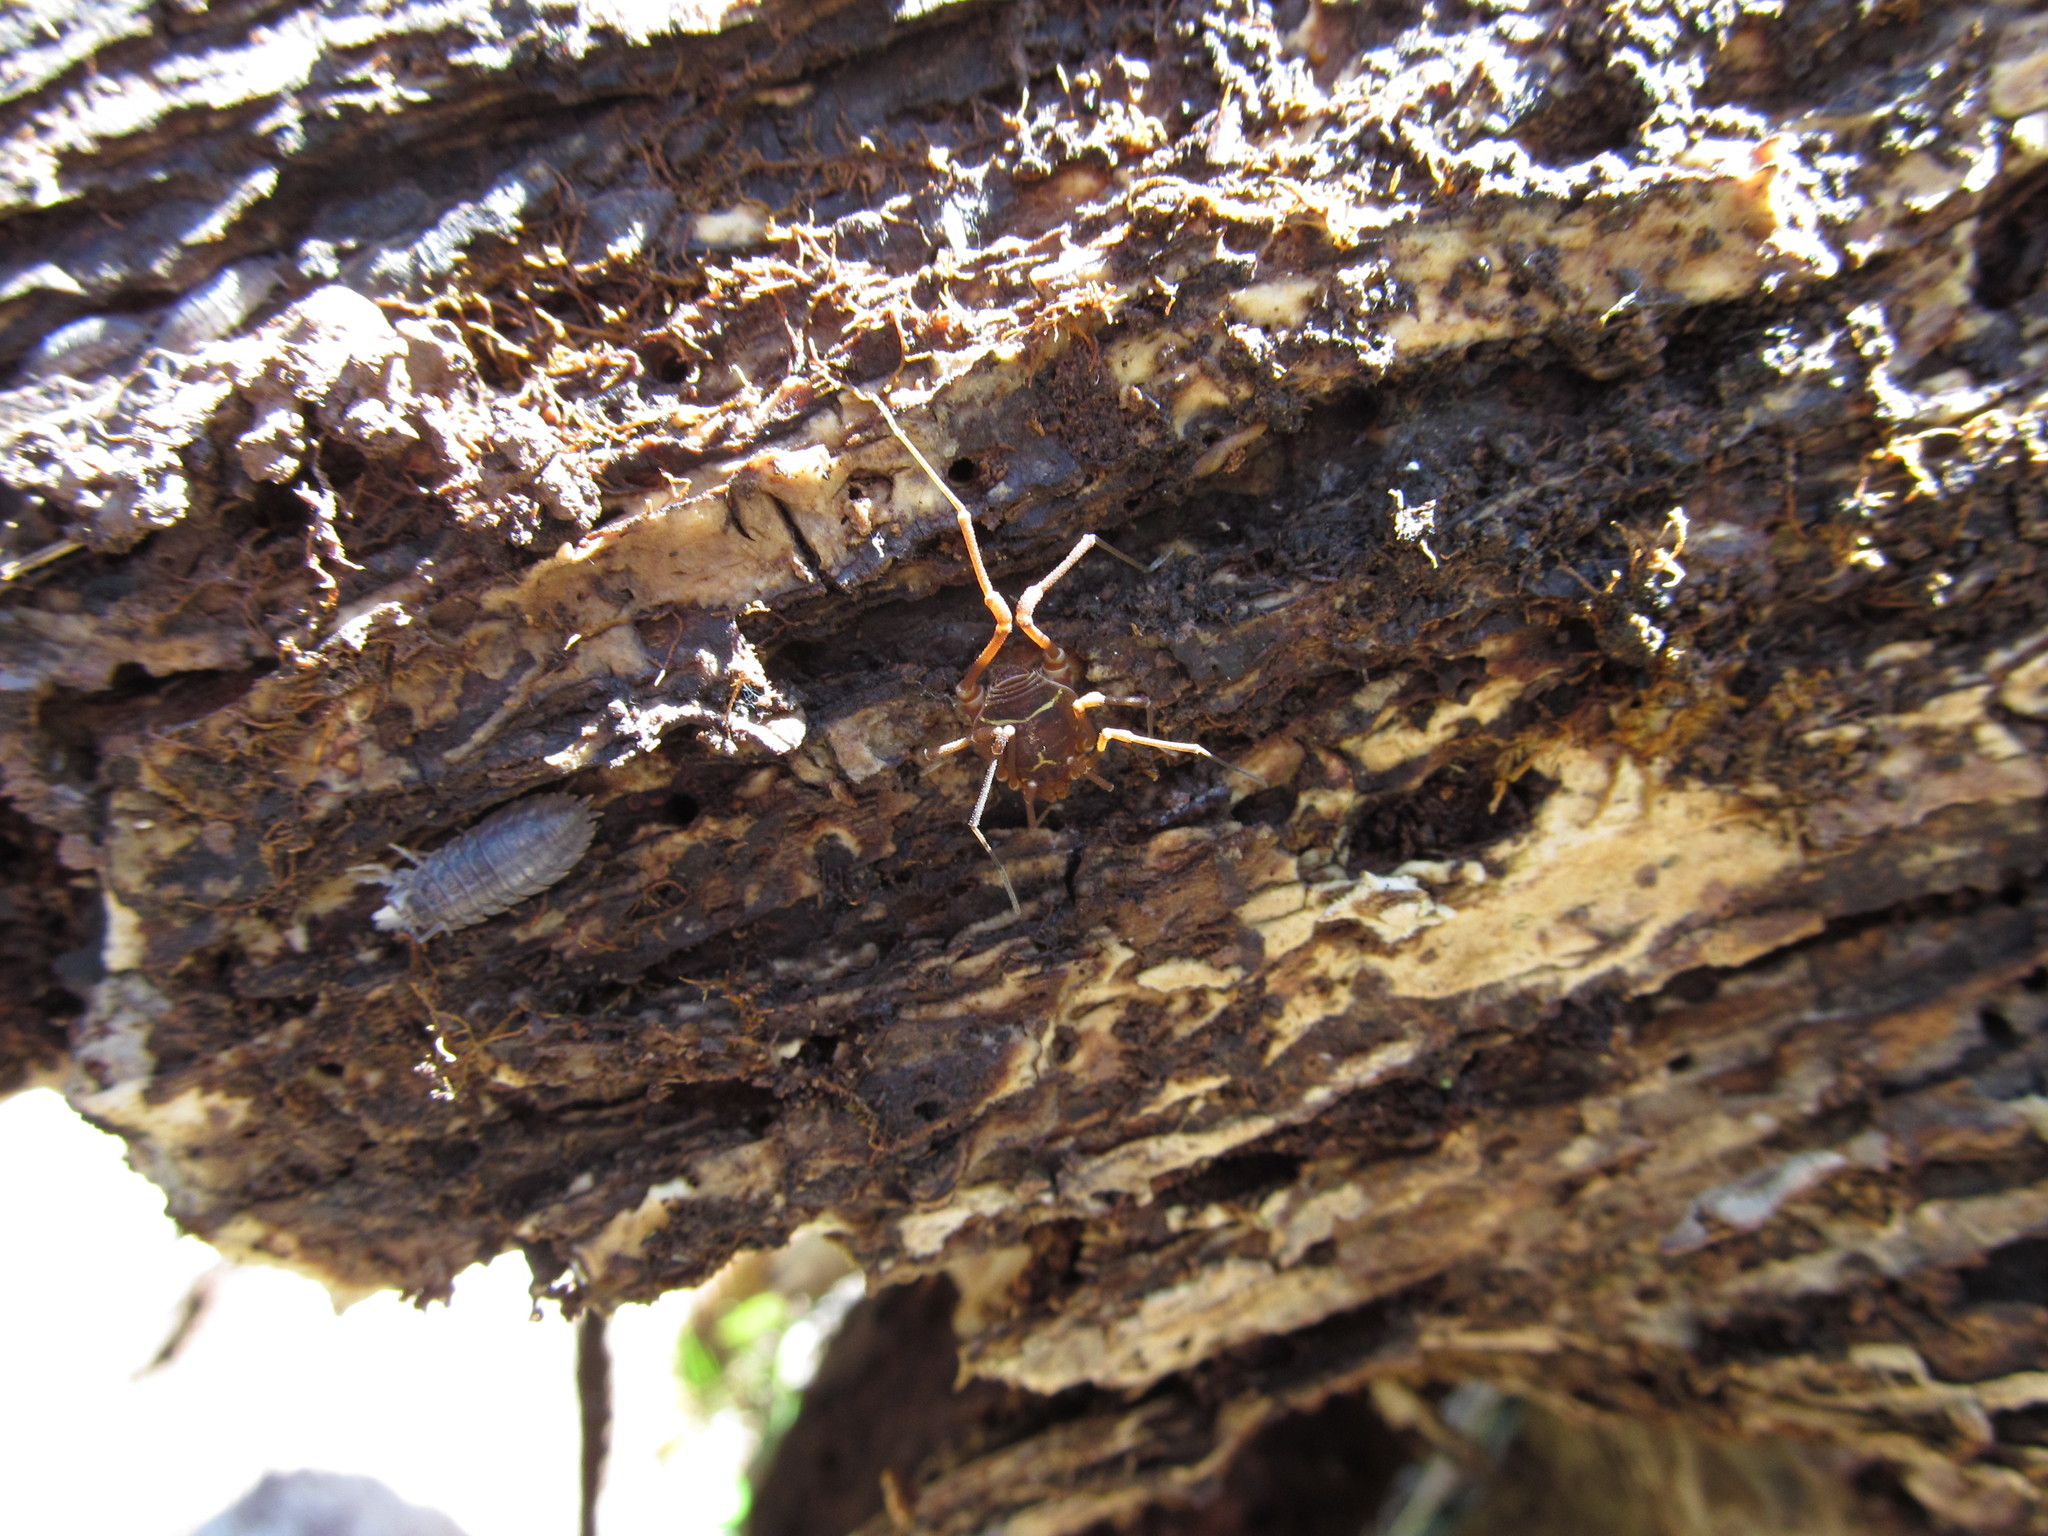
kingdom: Animalia
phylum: Arthropoda
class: Arachnida
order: Opiliones
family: Cosmetidae
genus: Libitioides
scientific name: Libitioides sayi
